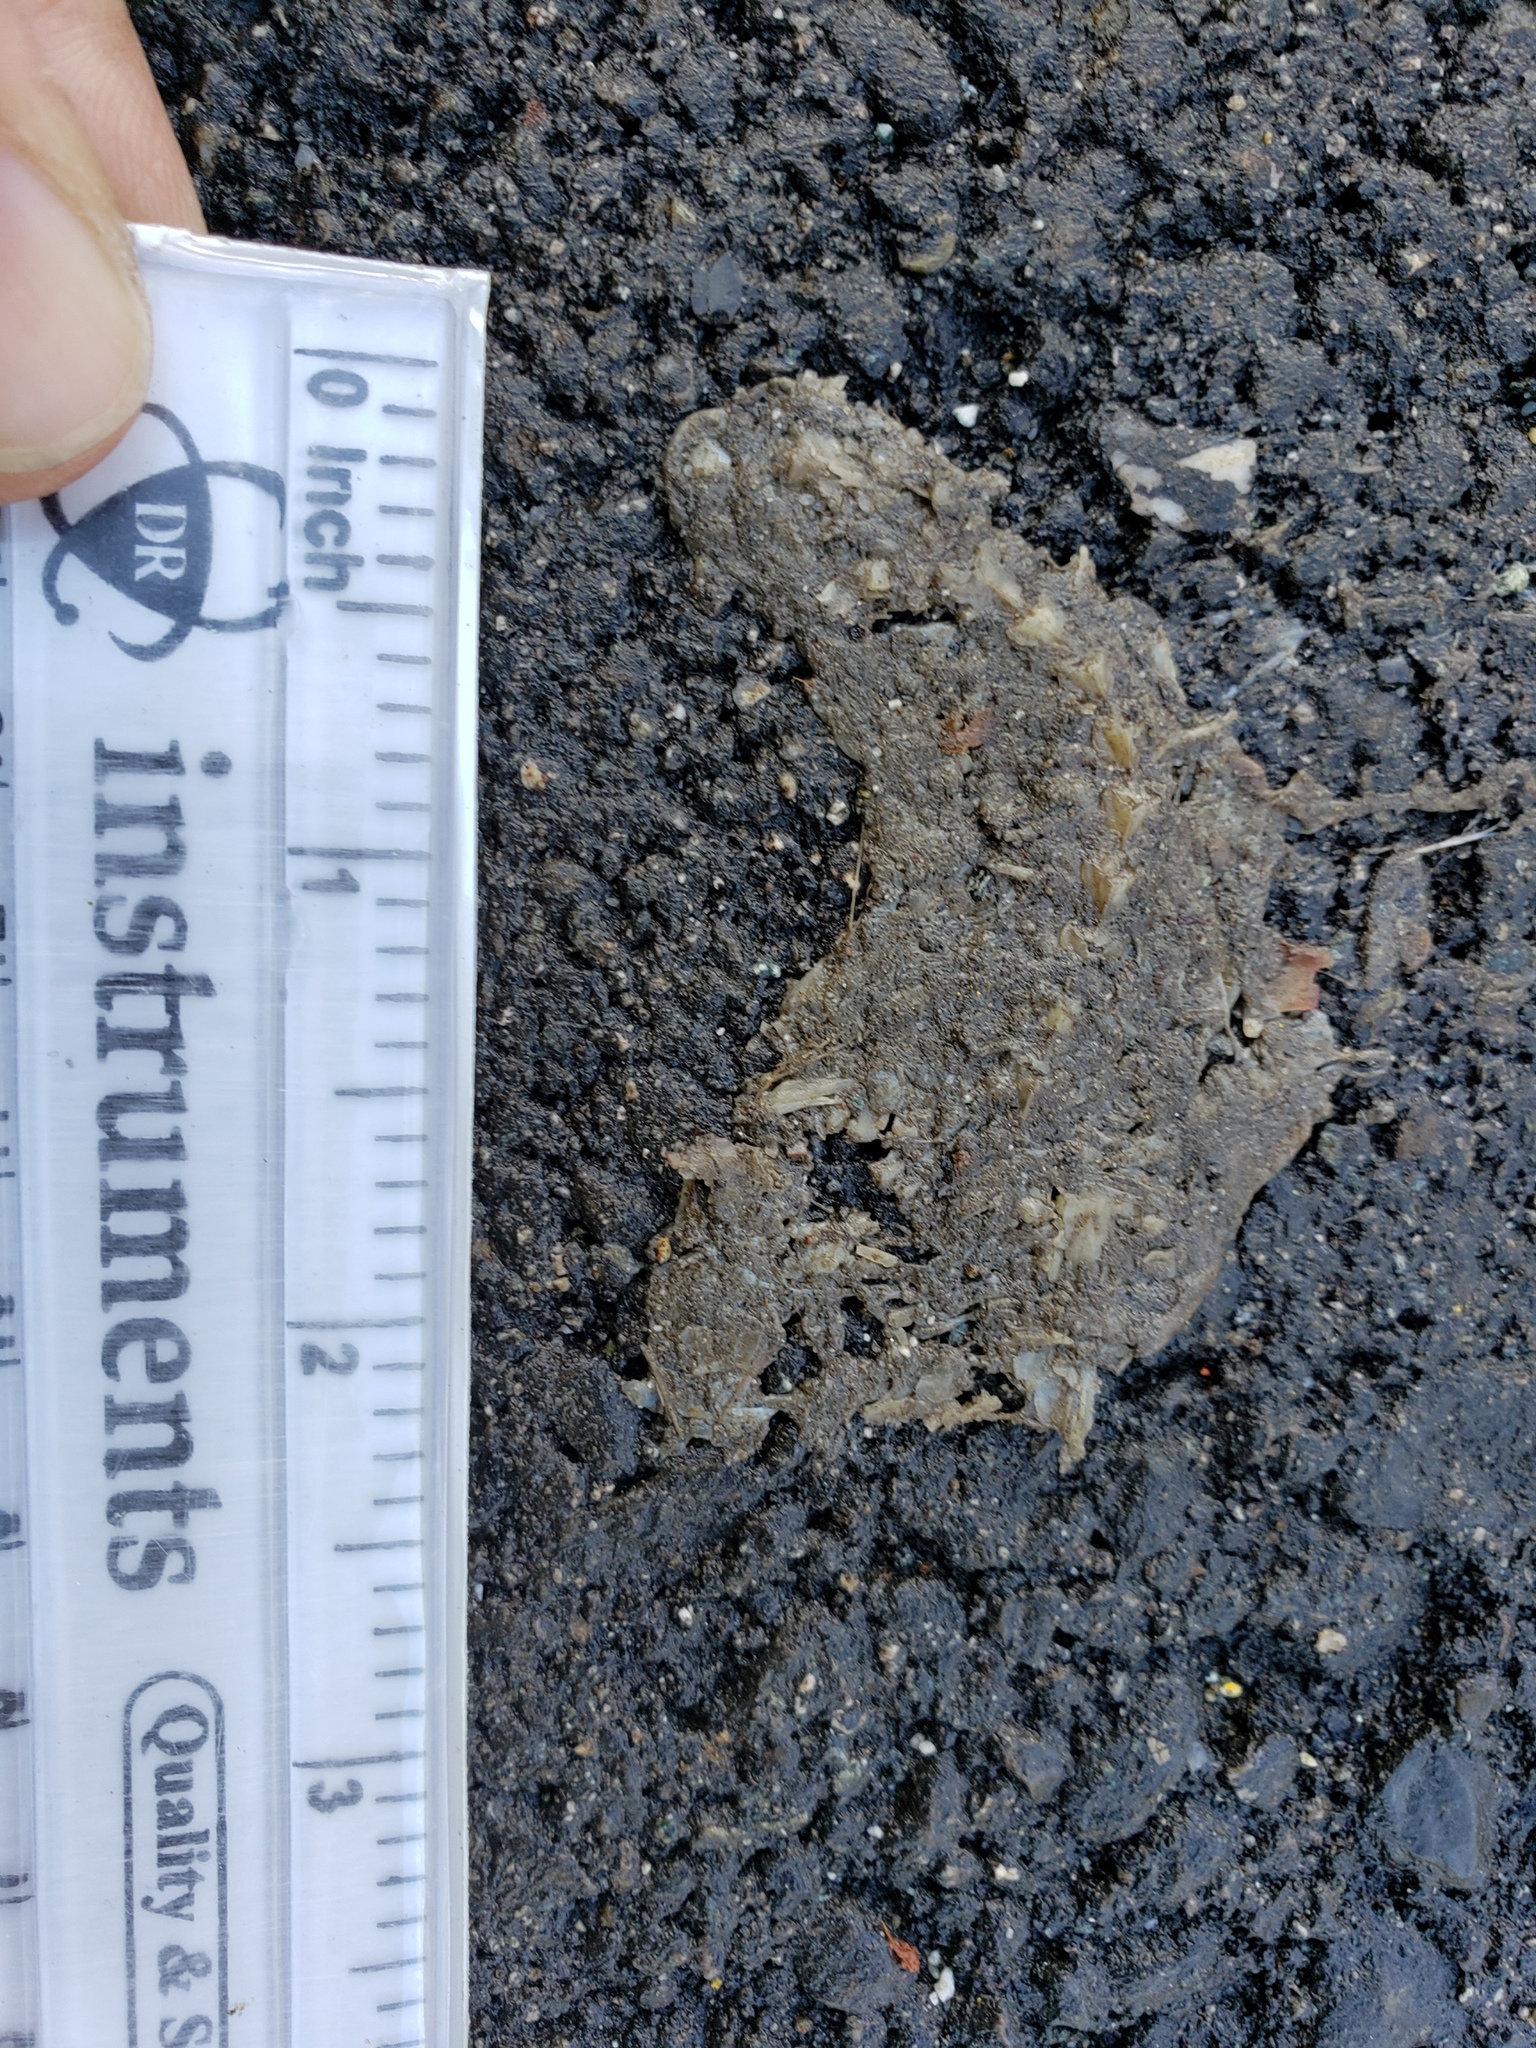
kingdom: Animalia
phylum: Chordata
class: Amphibia
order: Caudata
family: Salamandridae
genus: Taricha
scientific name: Taricha
